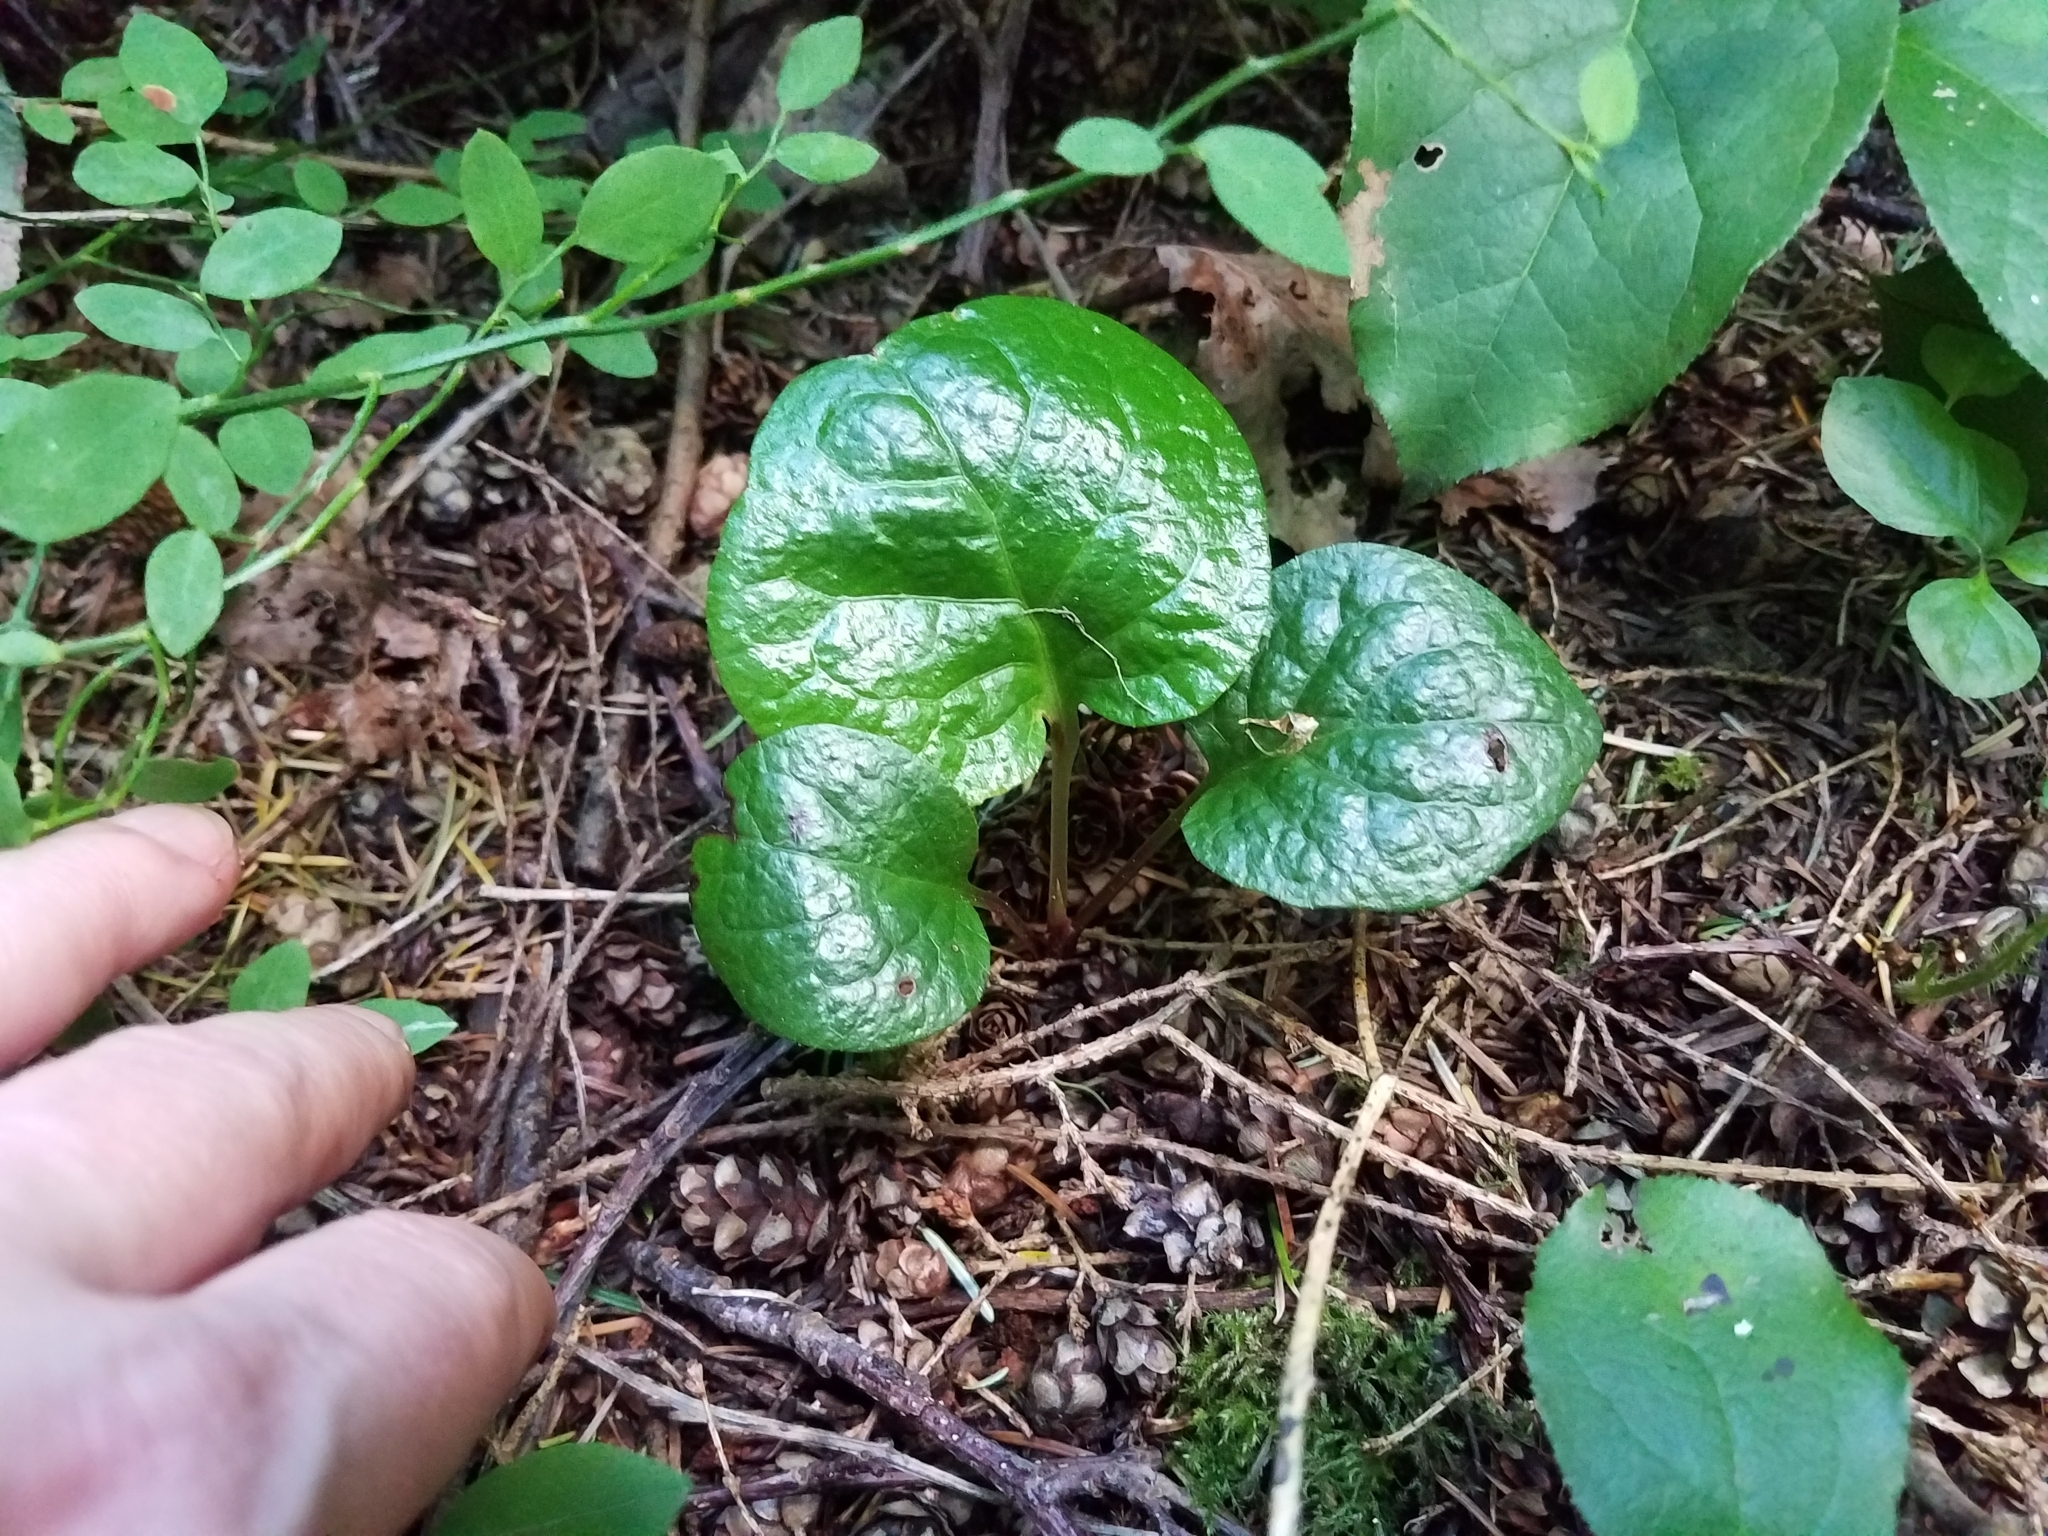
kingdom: Plantae
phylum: Tracheophyta
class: Magnoliopsida
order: Ericales
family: Ericaceae
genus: Pyrola
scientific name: Pyrola asarifolia
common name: Bog wintergreen
